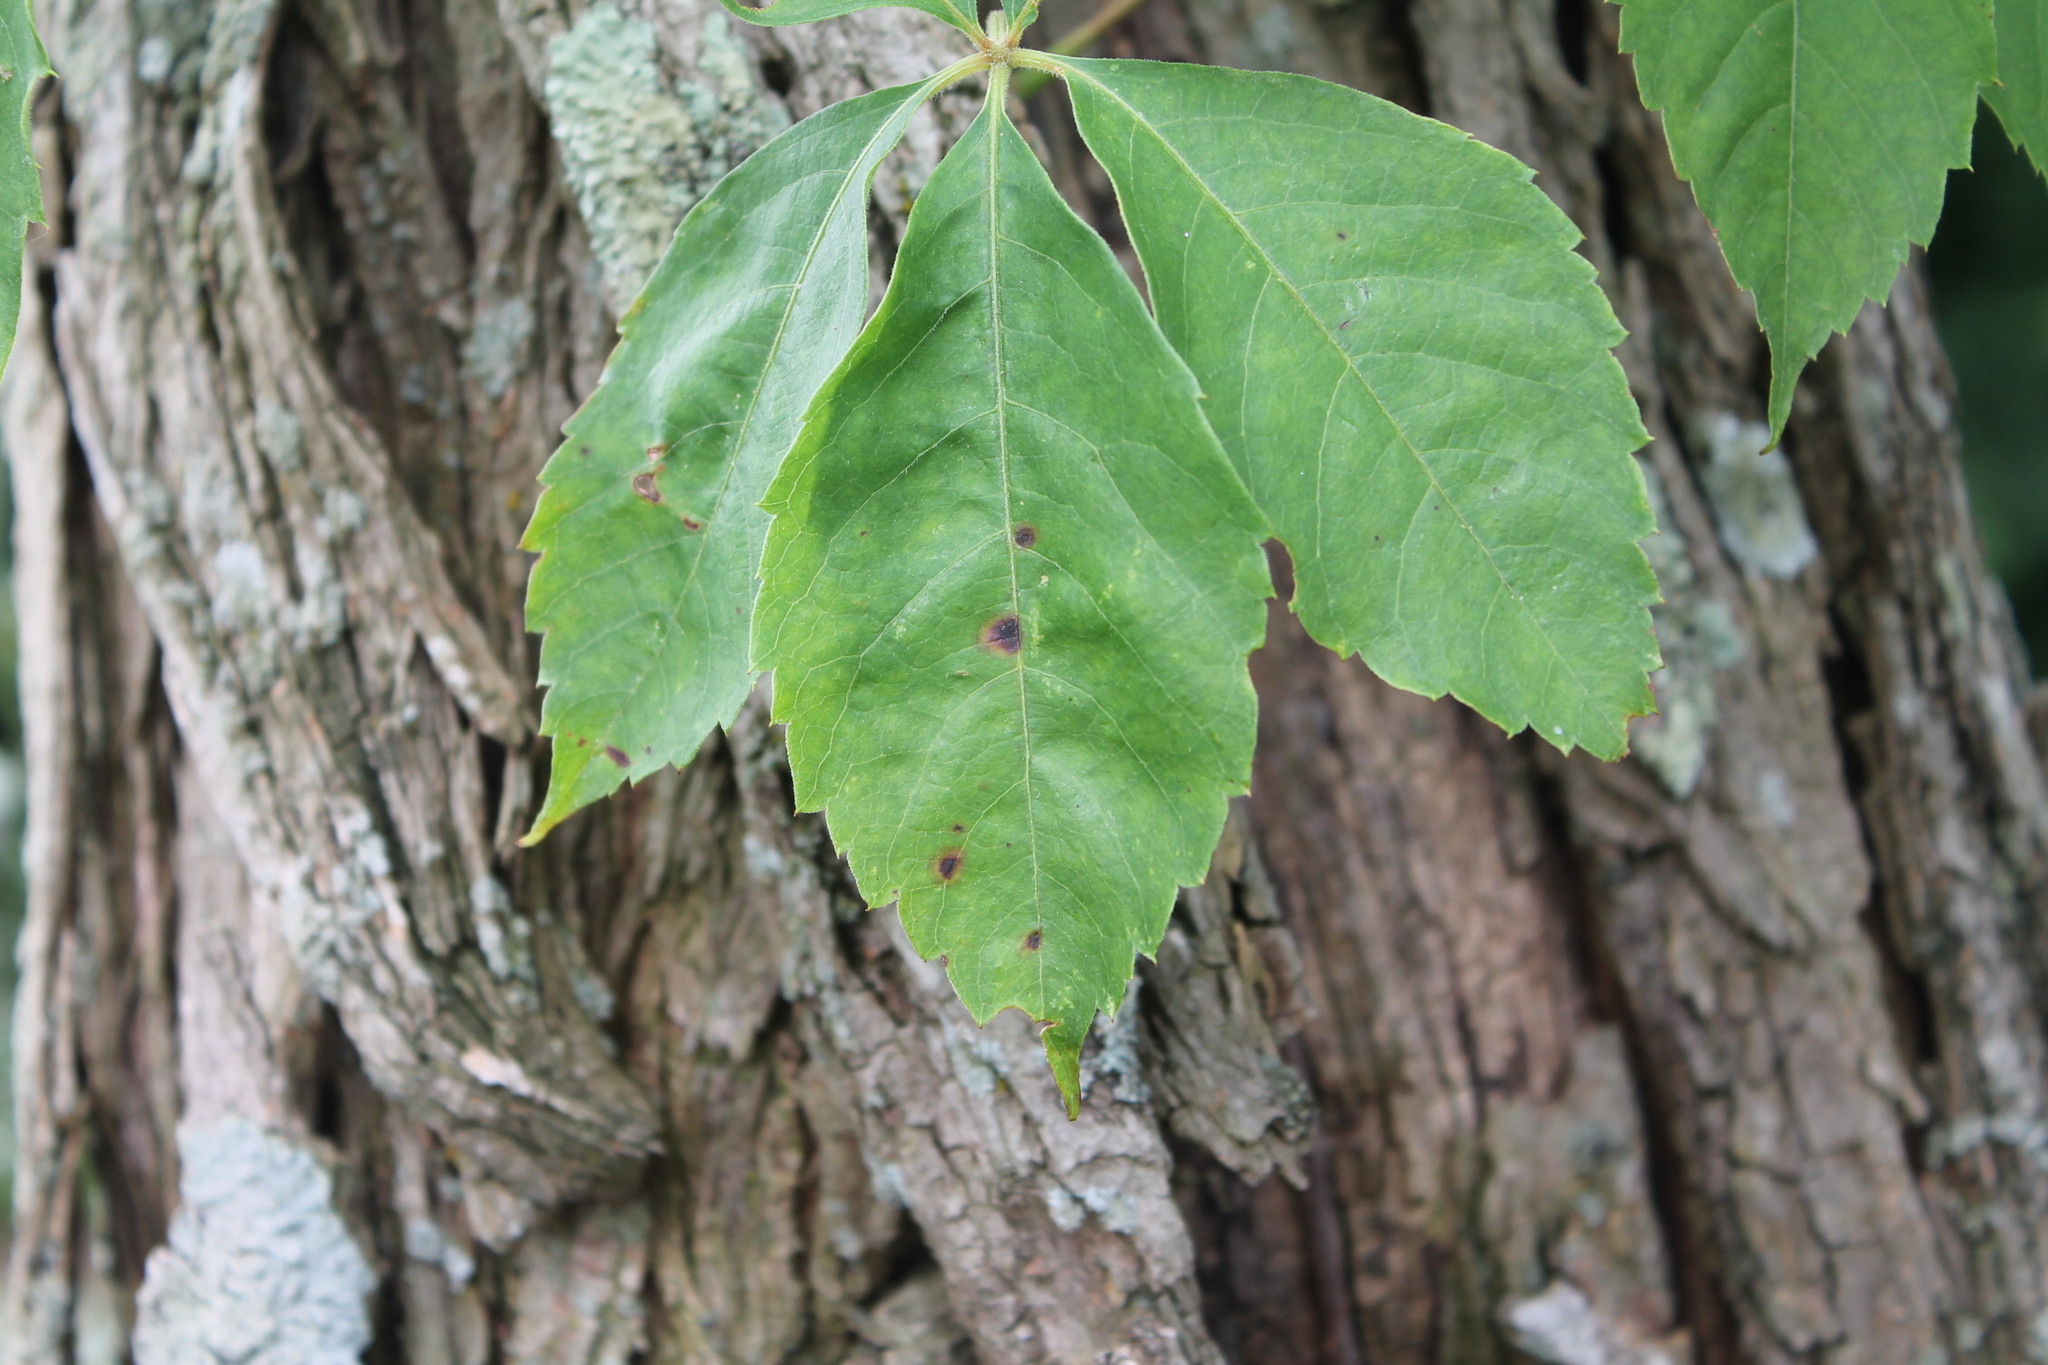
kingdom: Fungi
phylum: Ascomycota
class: Dothideomycetes
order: Botryosphaeriales
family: Phyllostictaceae
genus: Phyllosticta
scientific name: Phyllosticta parthenocissi
